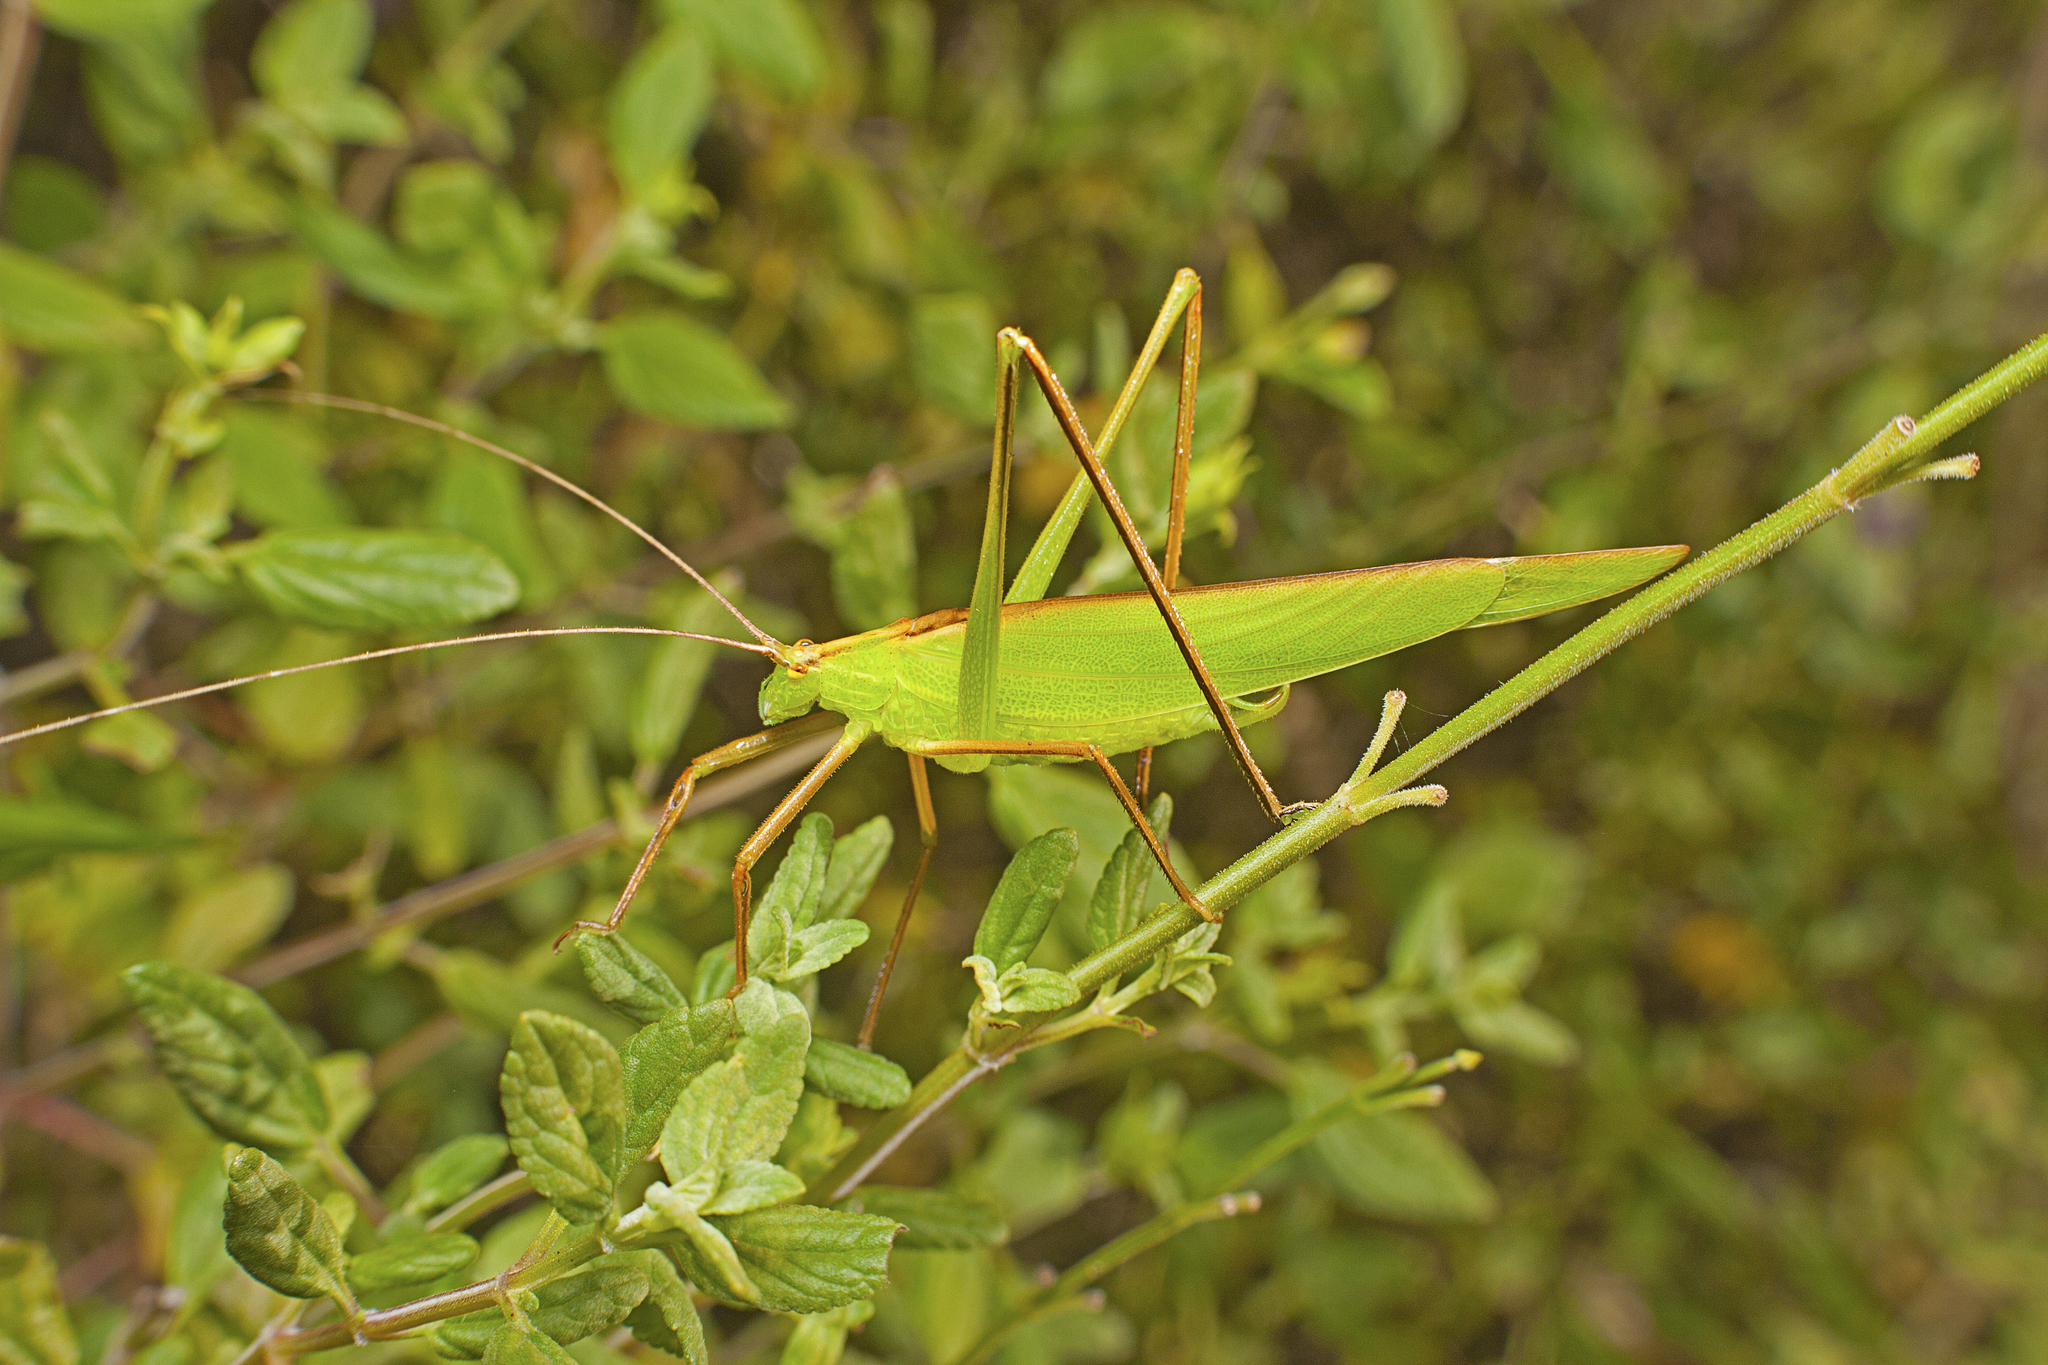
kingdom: Animalia
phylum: Arthropoda
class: Insecta
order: Orthoptera
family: Tettigoniidae
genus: Ducetia
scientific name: Ducetia antipoda
